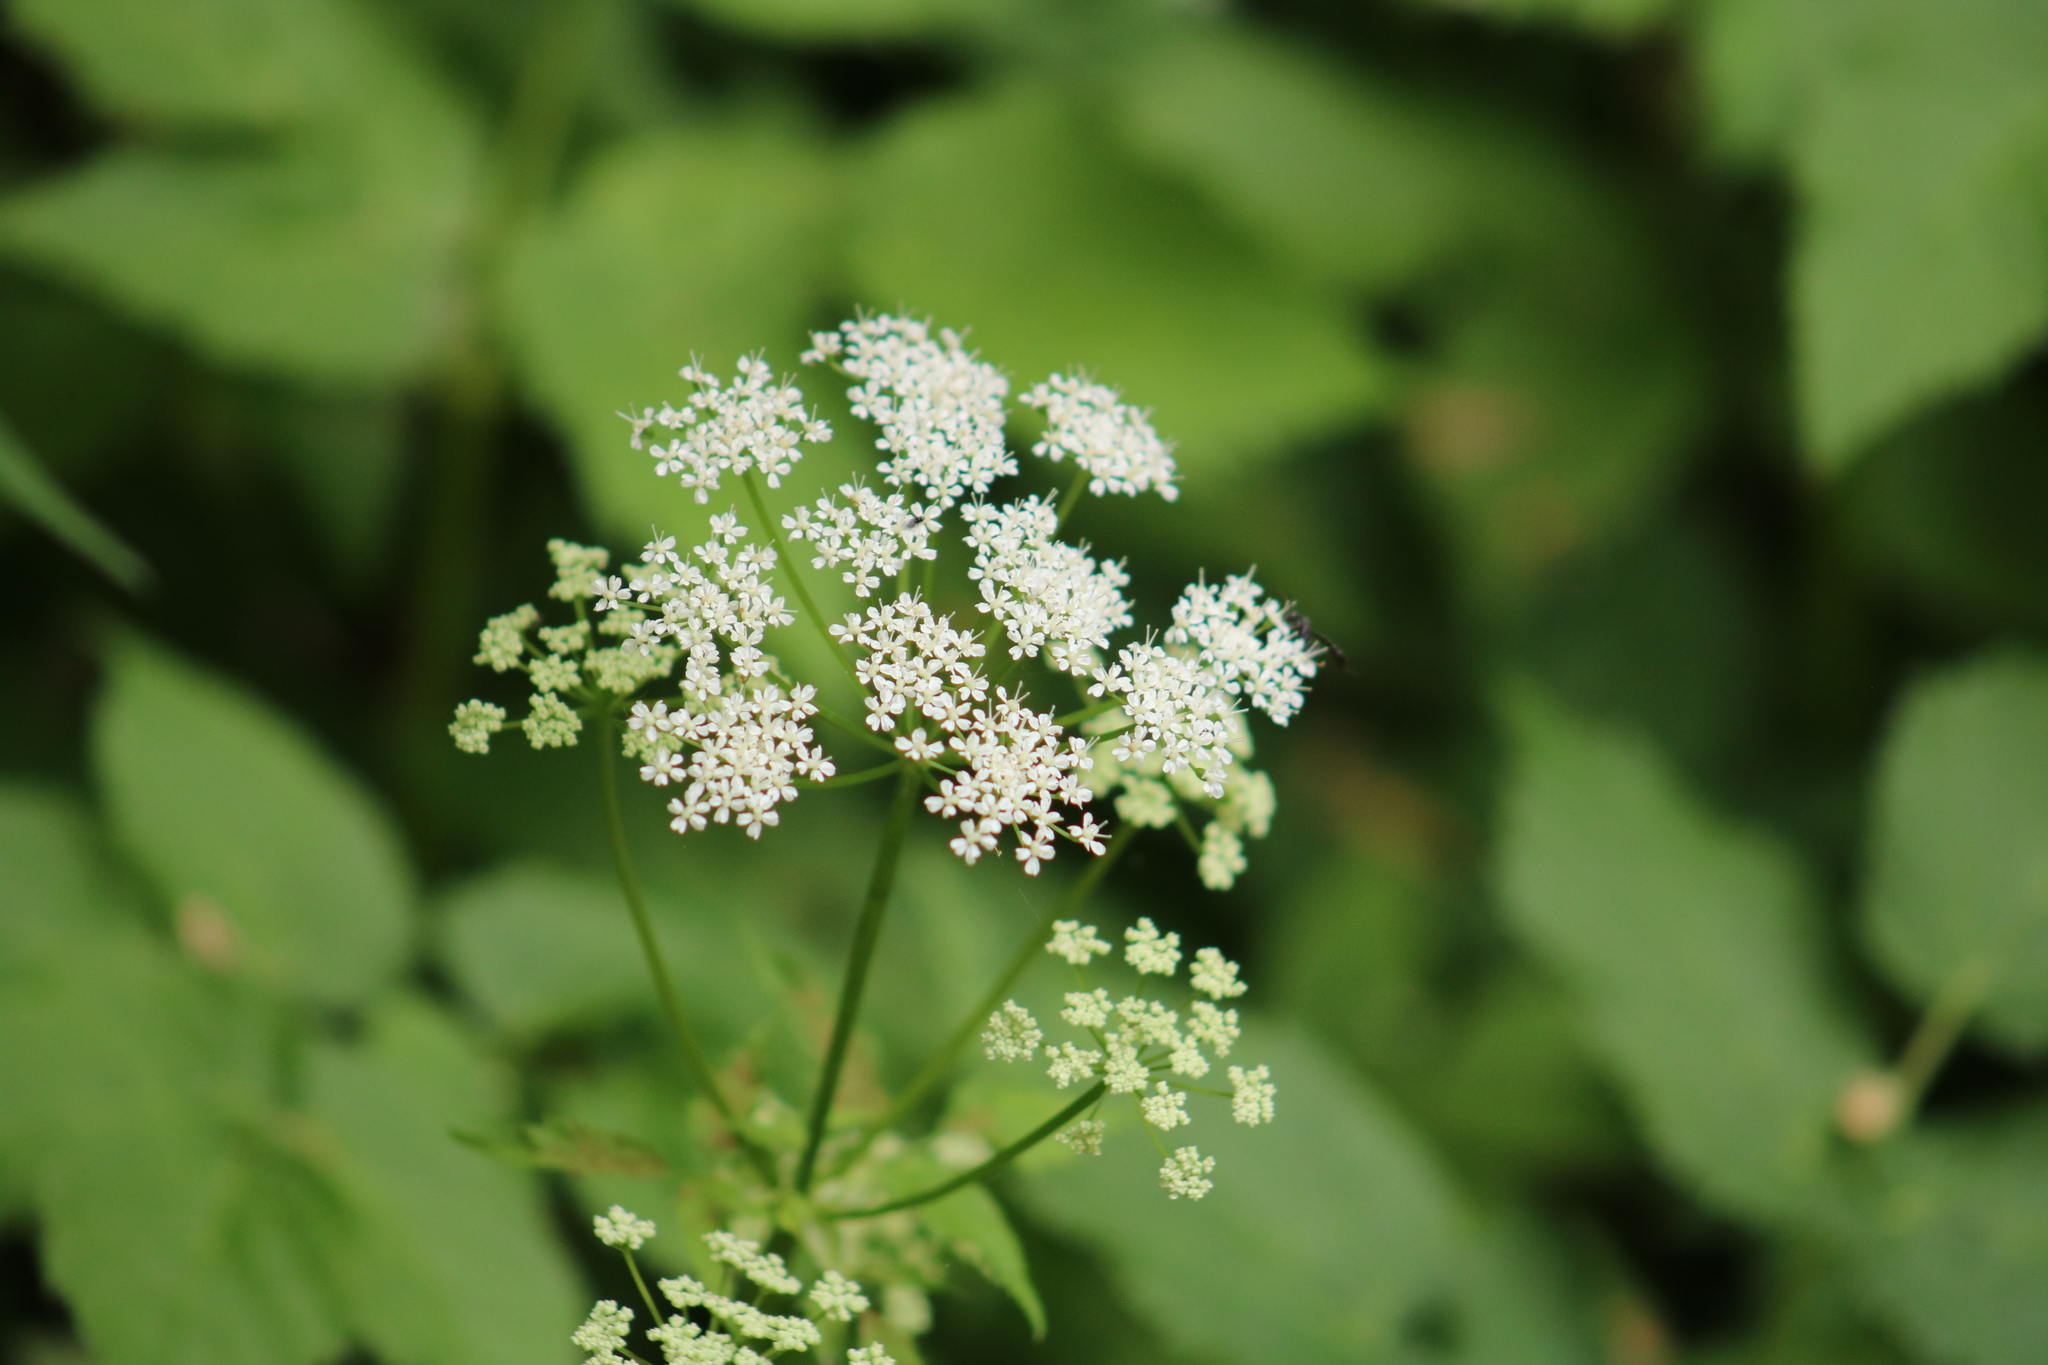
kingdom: Plantae
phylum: Tracheophyta
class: Magnoliopsida
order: Apiales
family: Apiaceae
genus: Aegopodium
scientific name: Aegopodium podagraria
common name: Ground-elder
